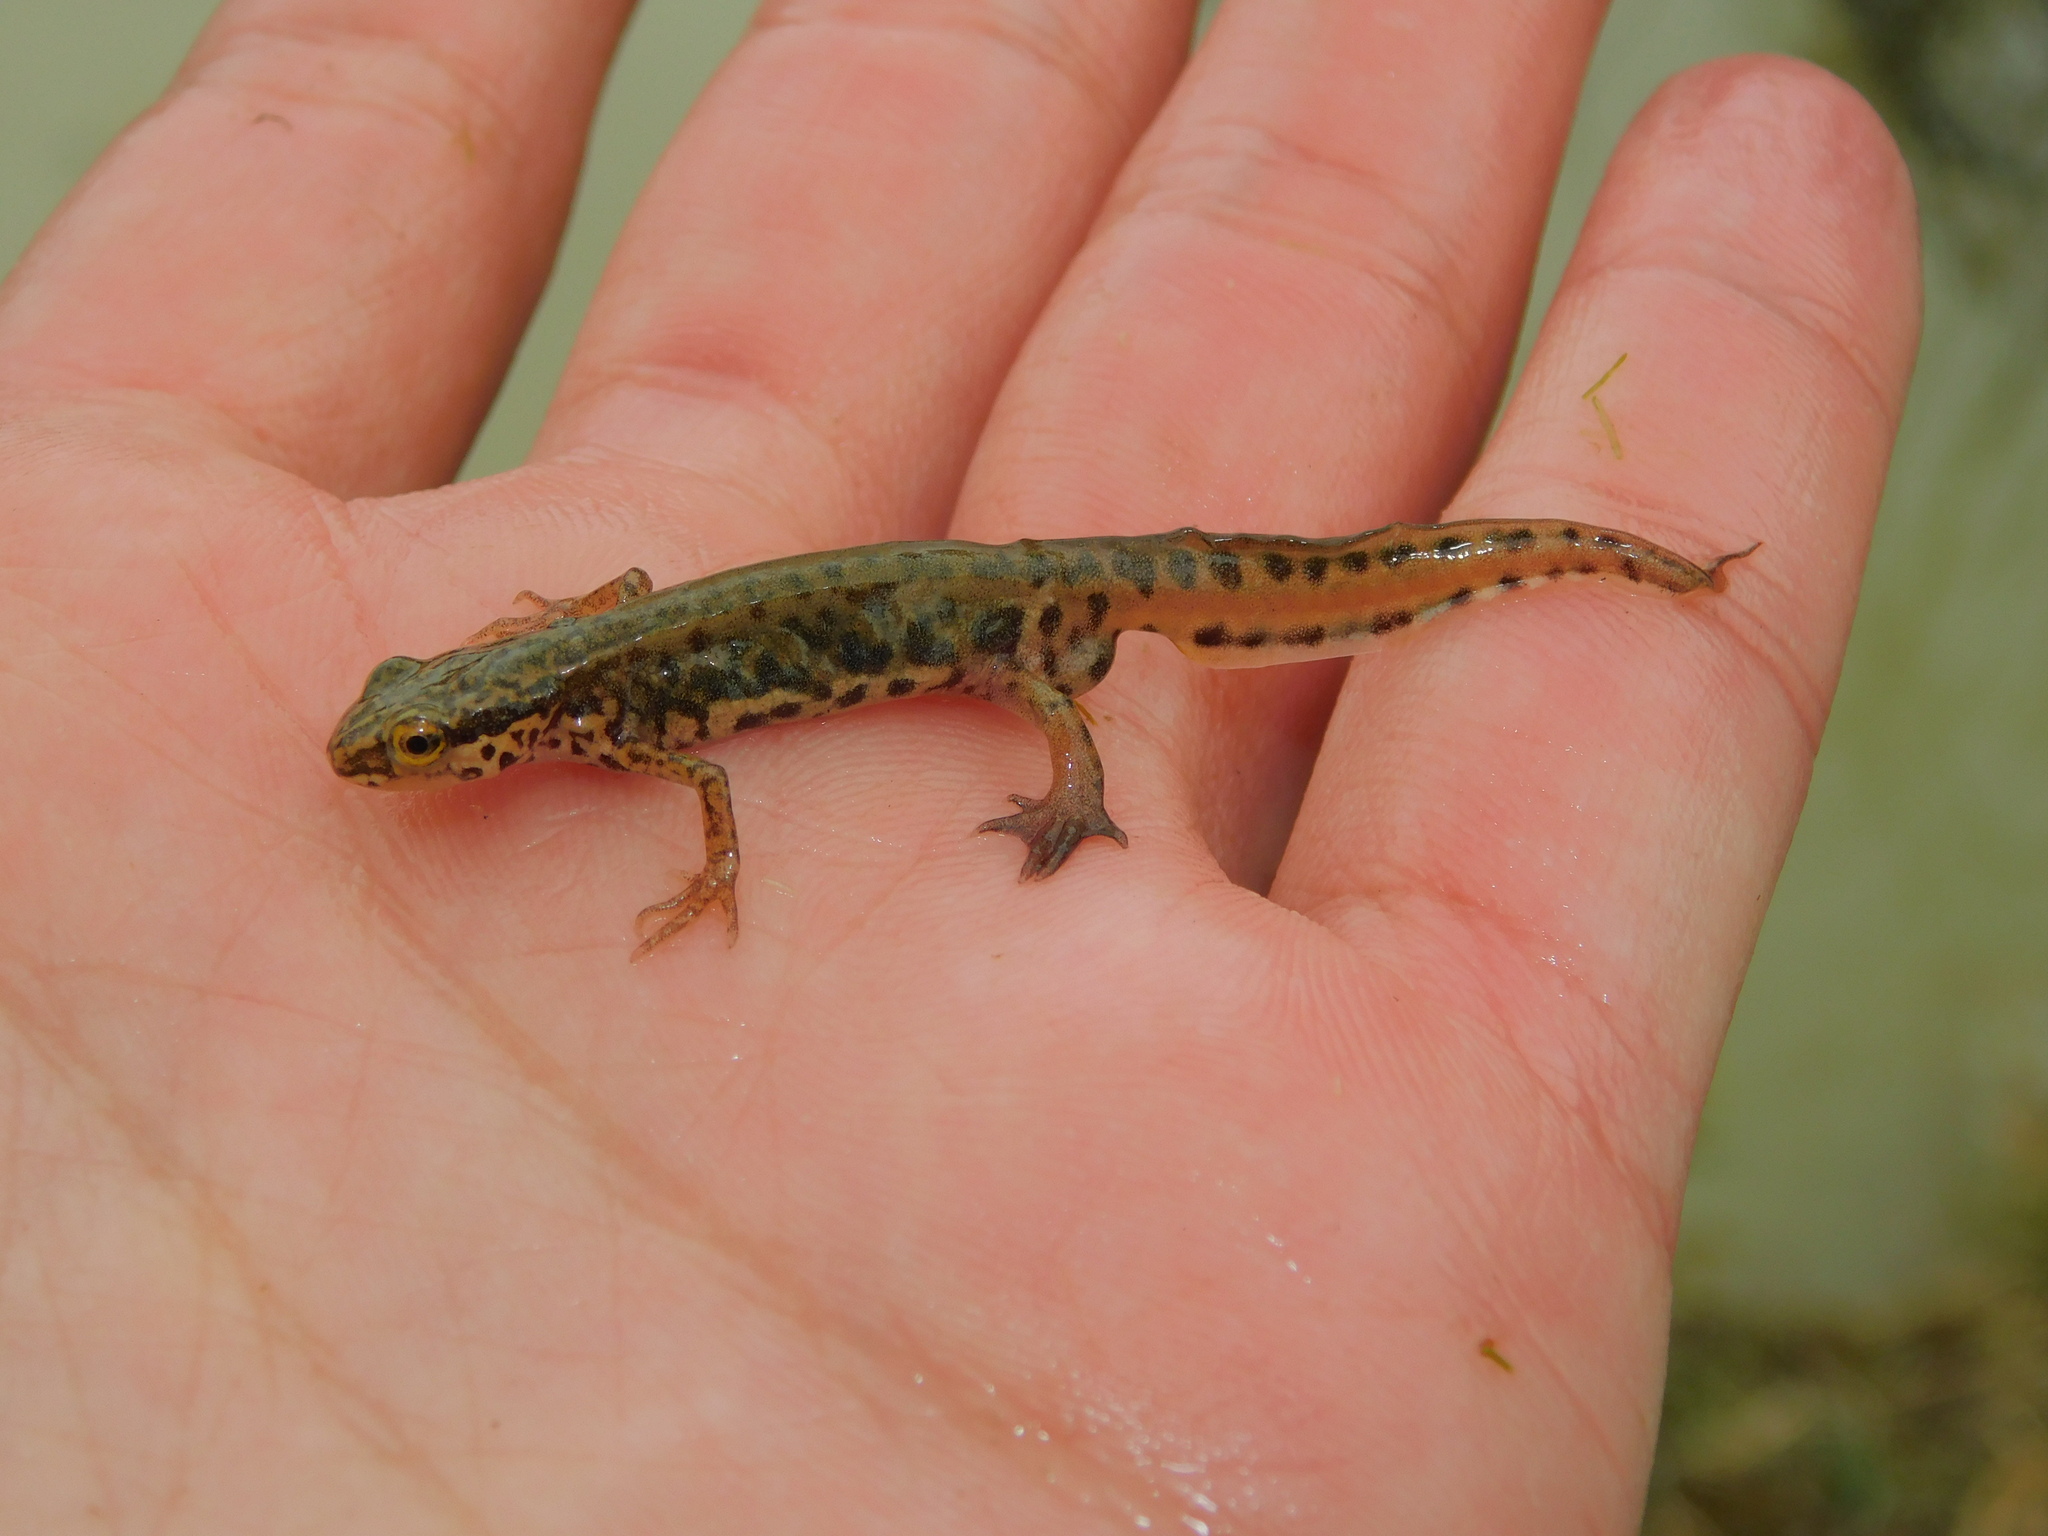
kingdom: Animalia
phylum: Chordata
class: Amphibia
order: Caudata
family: Salamandridae
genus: Lissotriton
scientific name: Lissotriton helveticus
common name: Palmate newt
